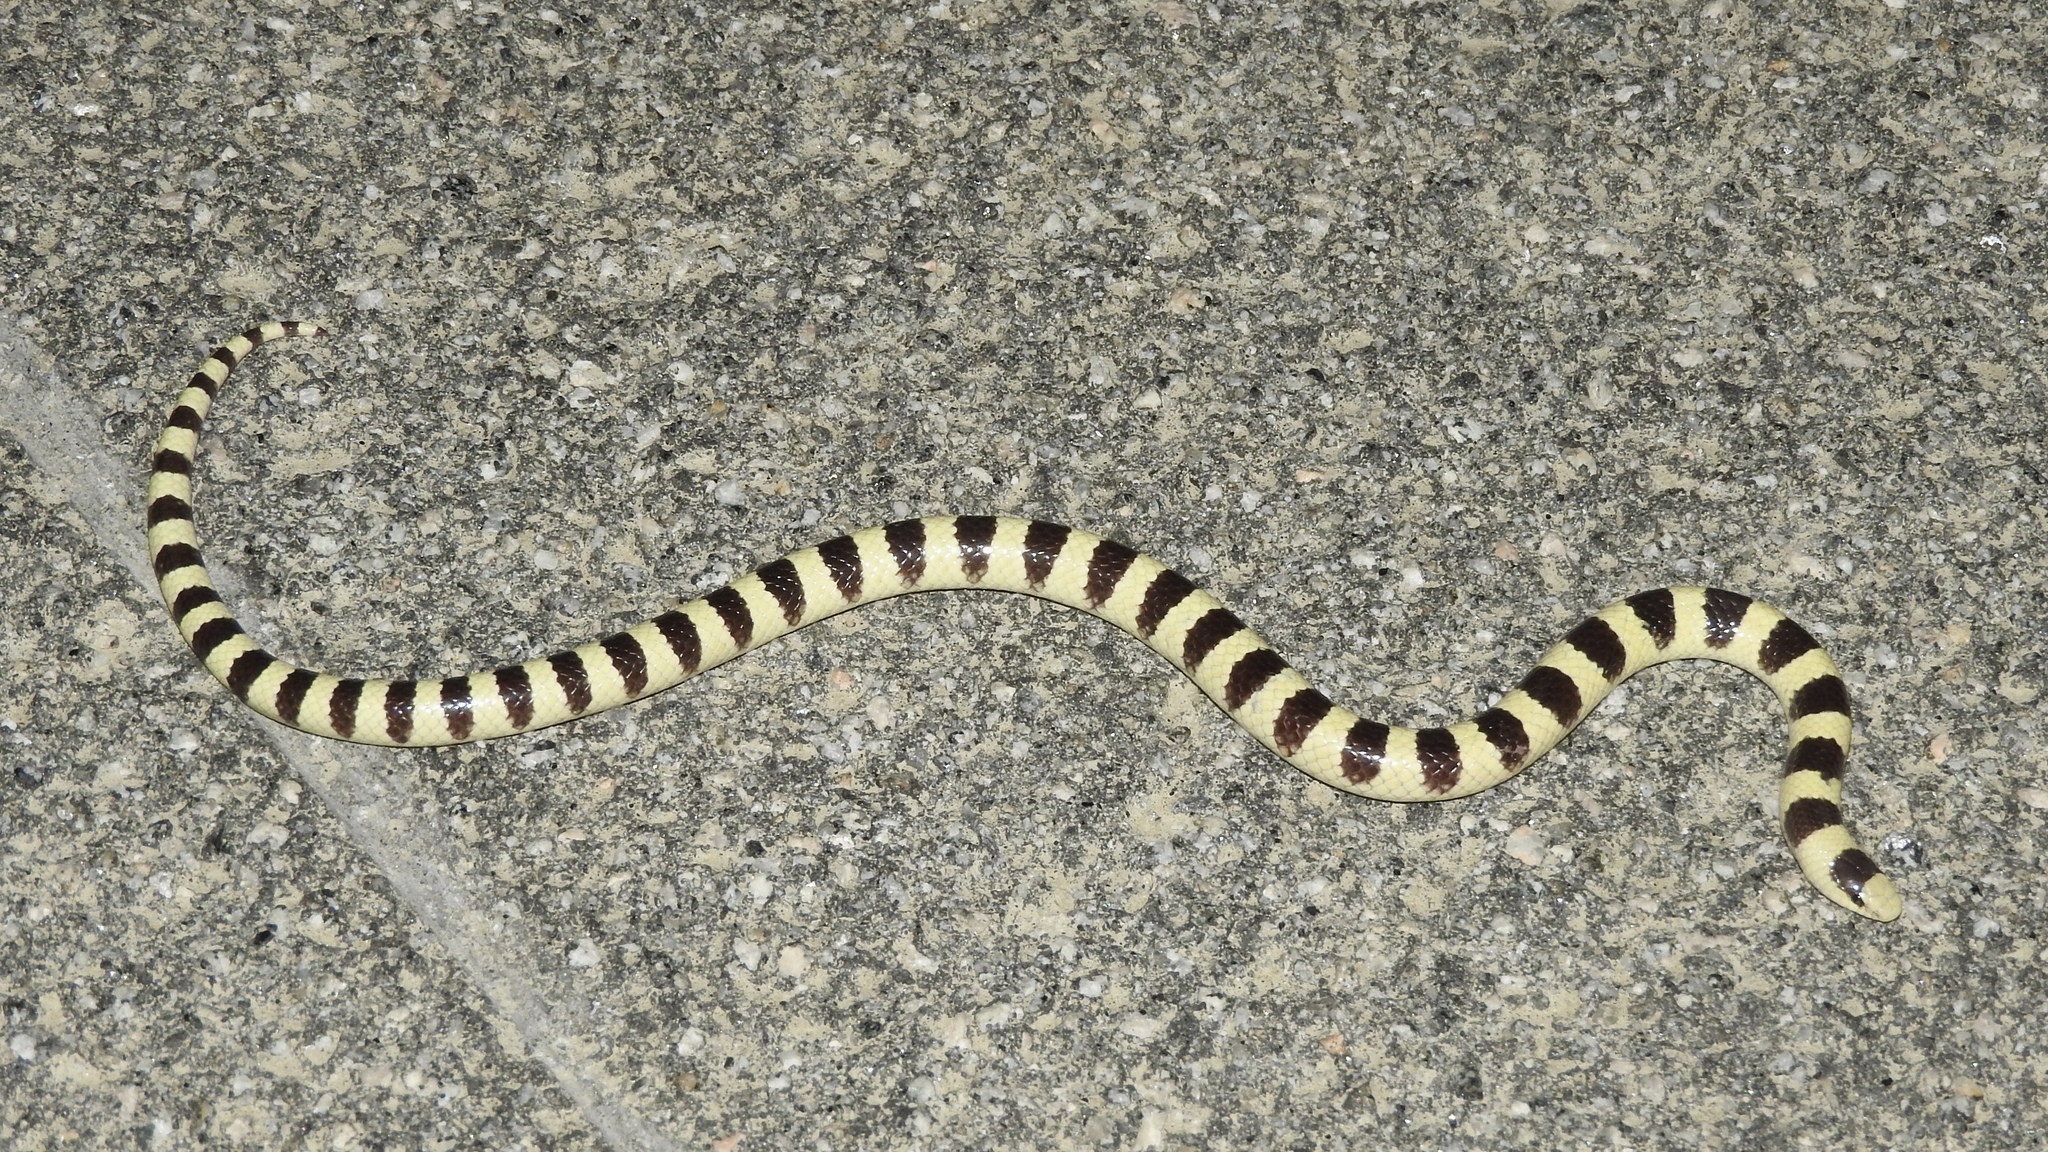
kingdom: Animalia
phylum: Chordata
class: Squamata
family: Colubridae
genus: Sonora
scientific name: Sonora occipitalis
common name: Western shovelnose snake
